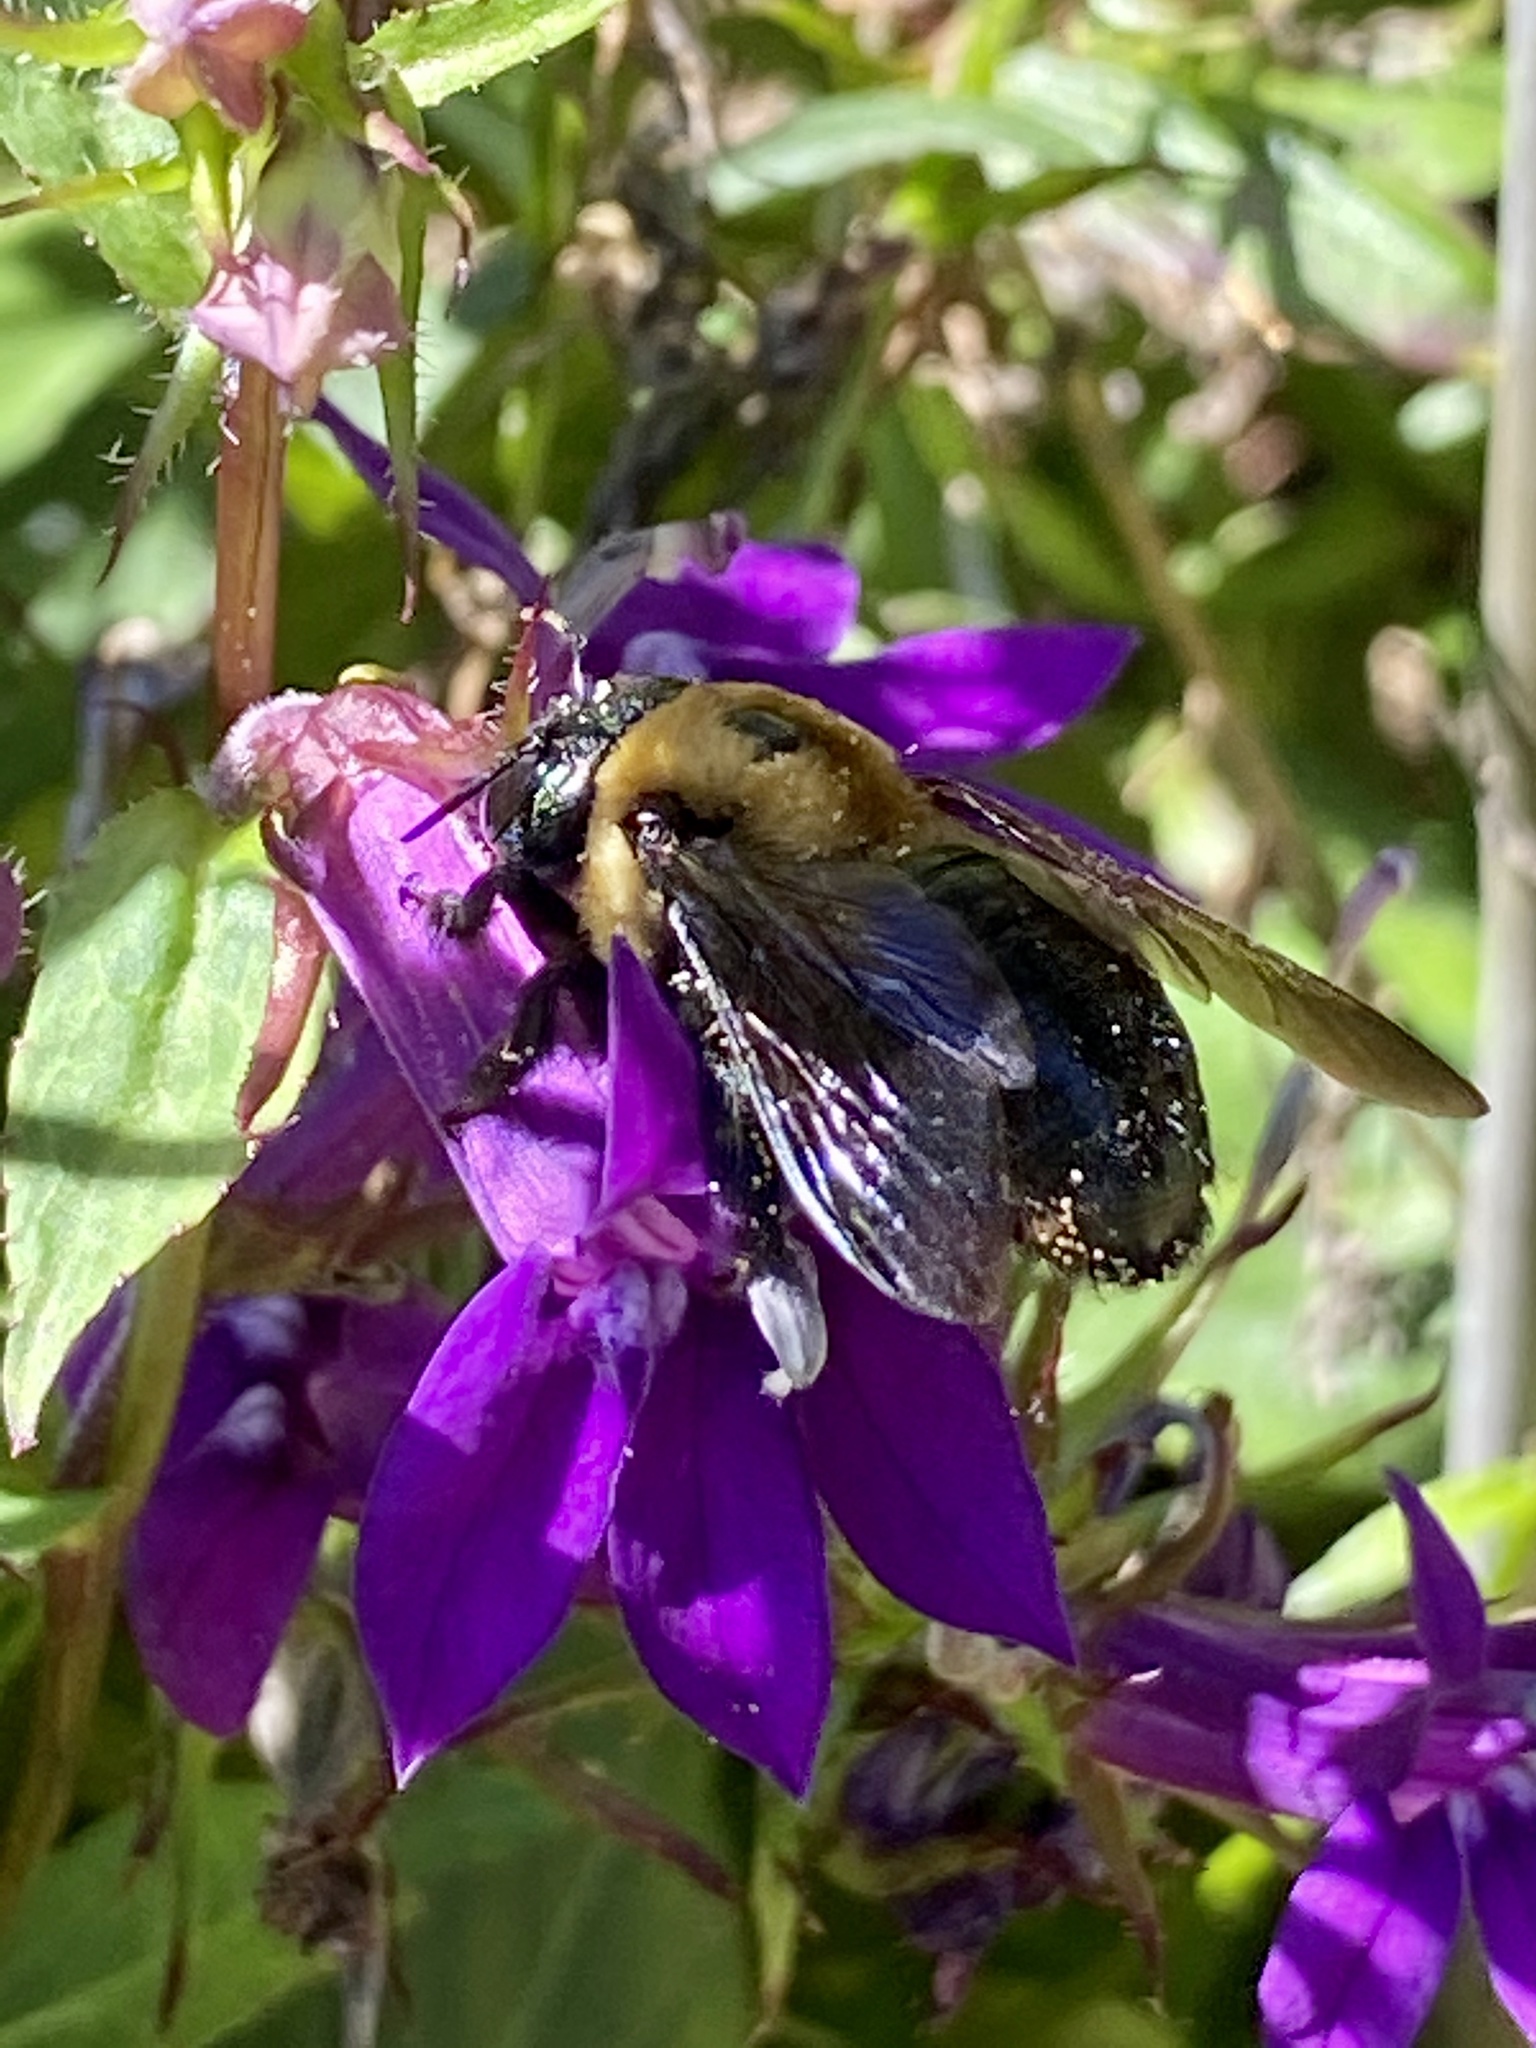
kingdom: Animalia
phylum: Arthropoda
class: Insecta
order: Hymenoptera
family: Apidae
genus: Xylocopa
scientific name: Xylocopa virginica
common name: Carpenter bee
